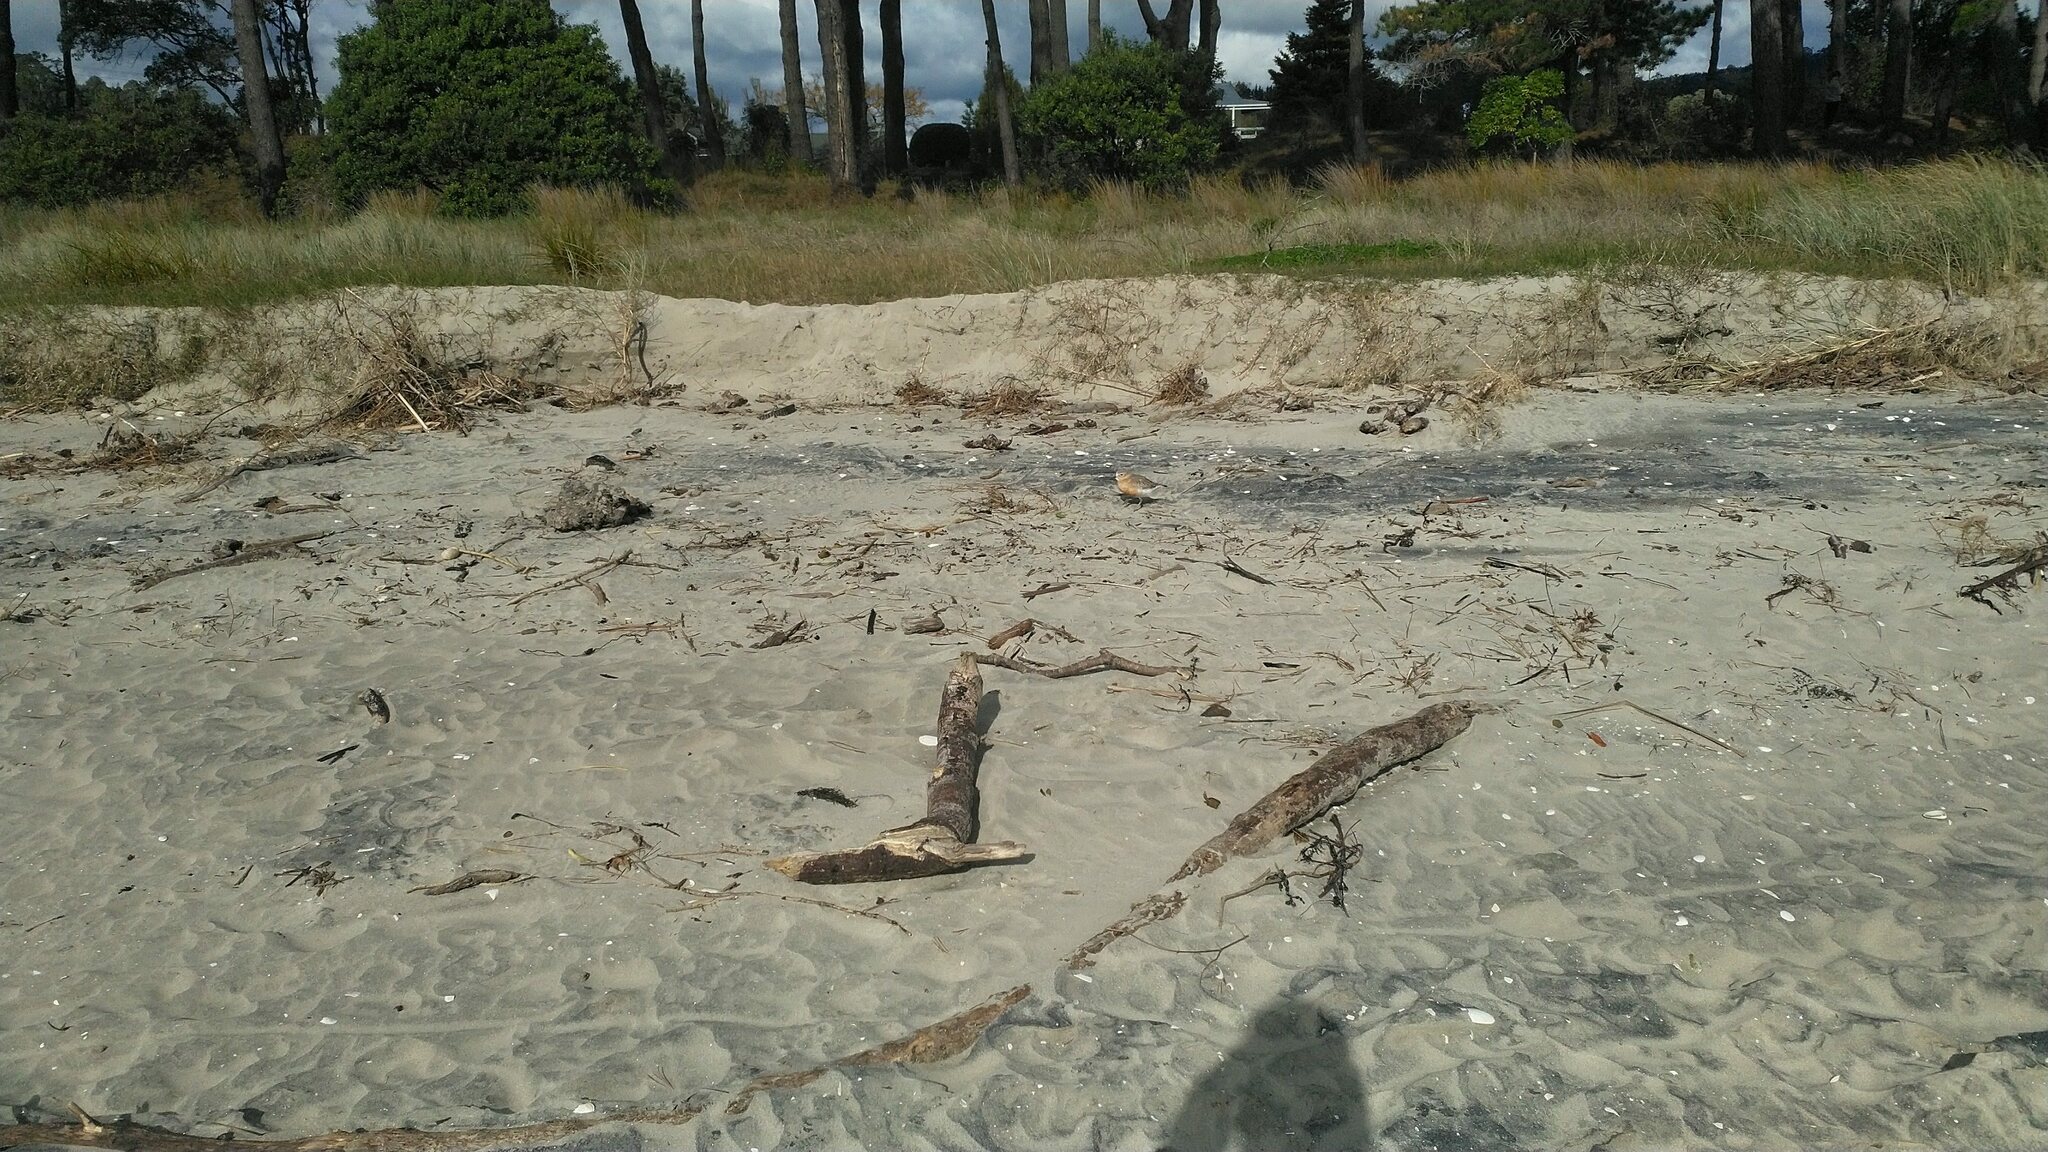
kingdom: Animalia
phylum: Chordata
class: Aves
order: Charadriiformes
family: Charadriidae
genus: Anarhynchus
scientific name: Anarhynchus
